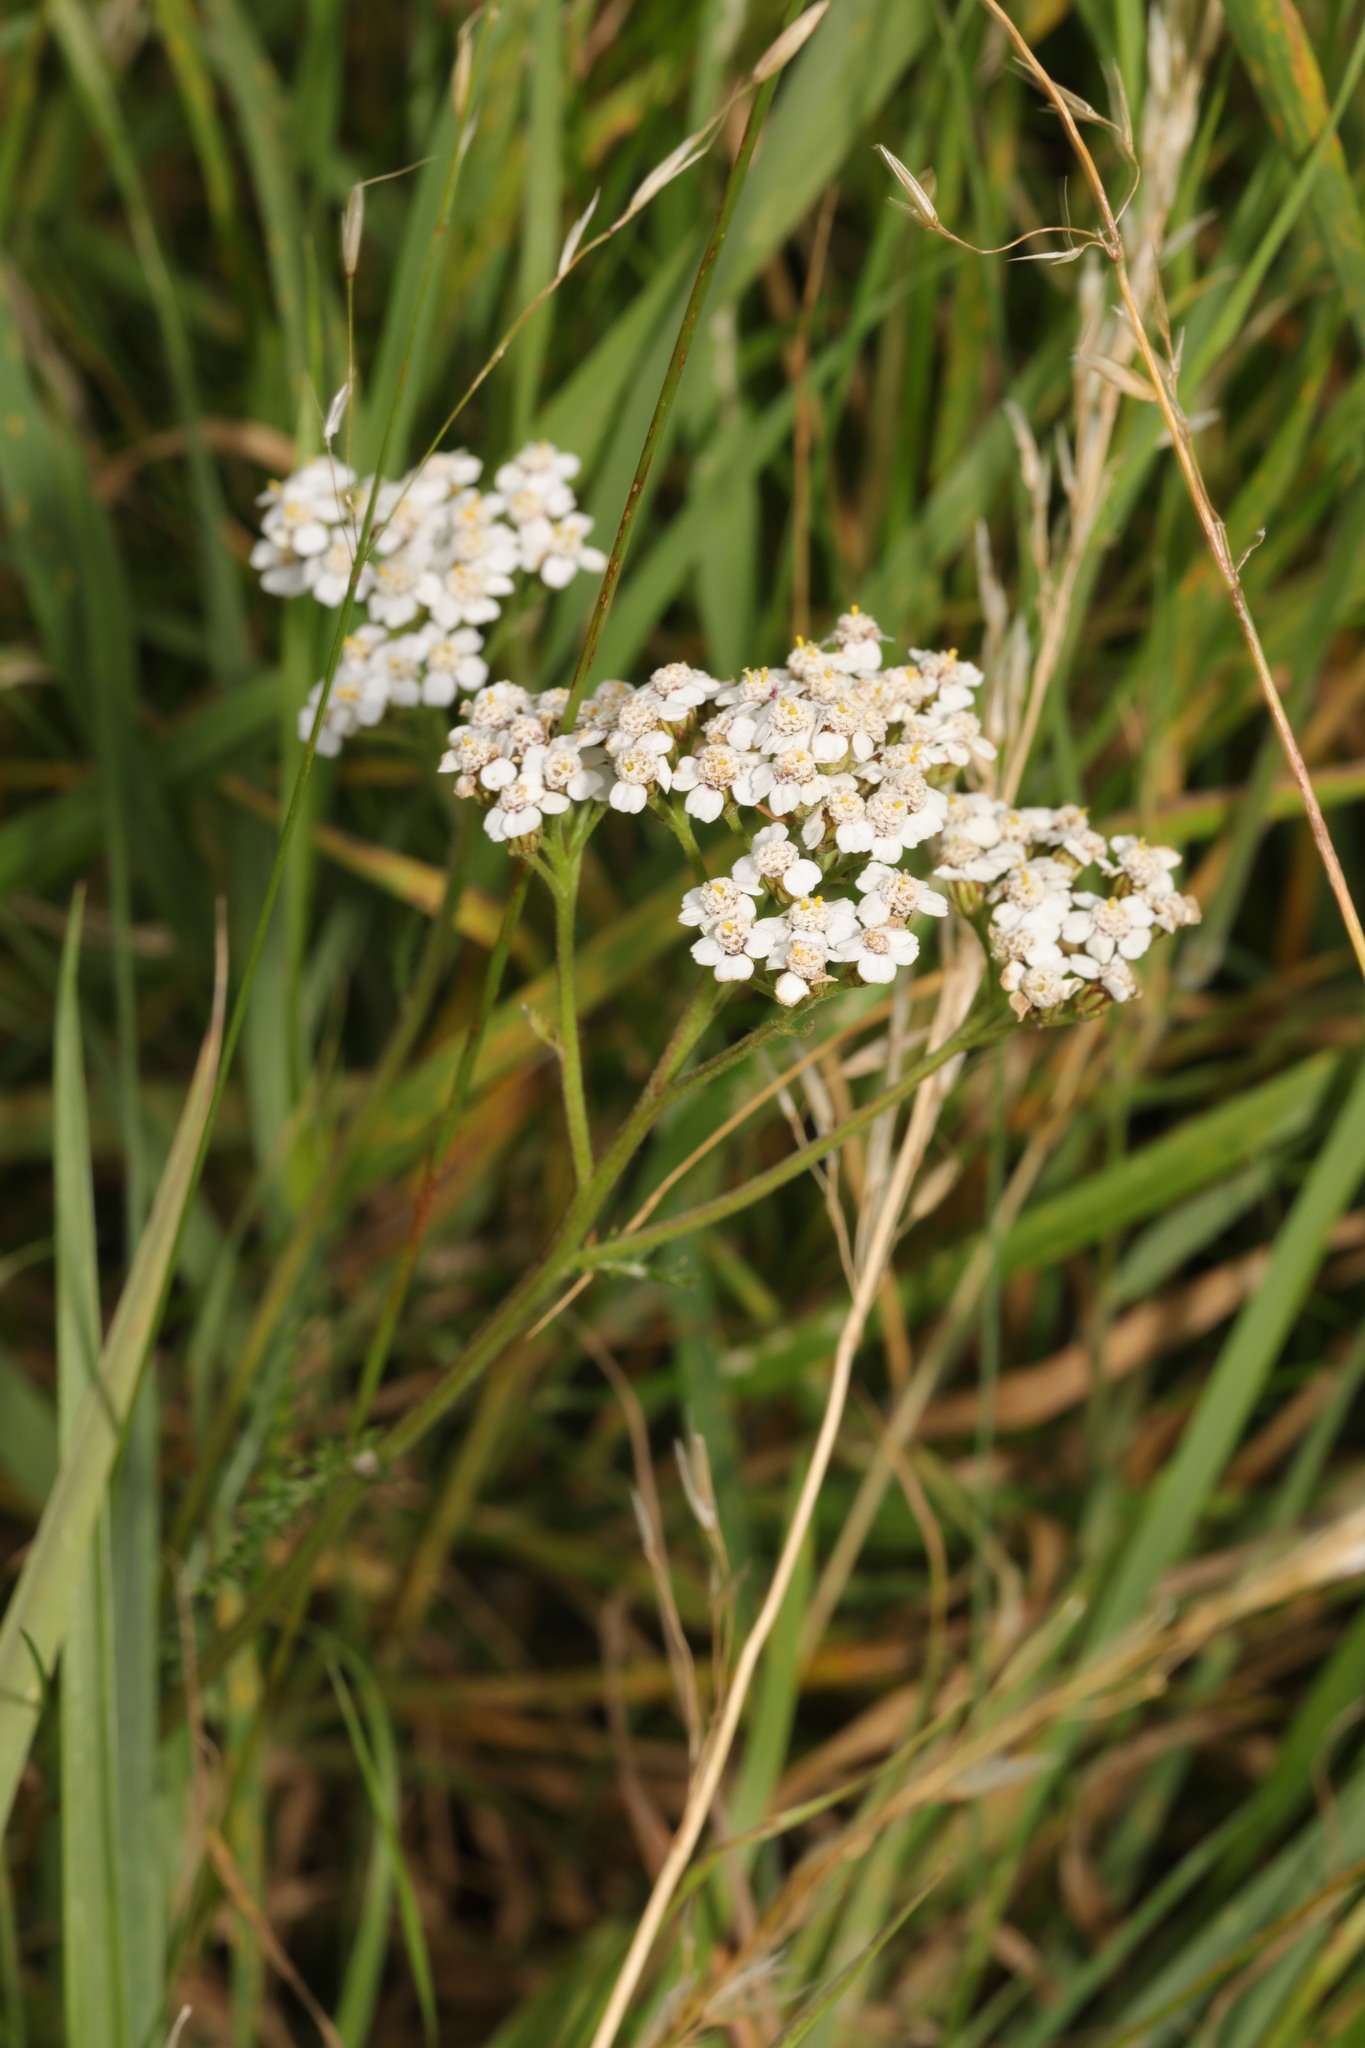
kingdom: Plantae
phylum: Tracheophyta
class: Magnoliopsida
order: Asterales
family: Asteraceae
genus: Achillea
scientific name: Achillea millefolium
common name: Yarrow
